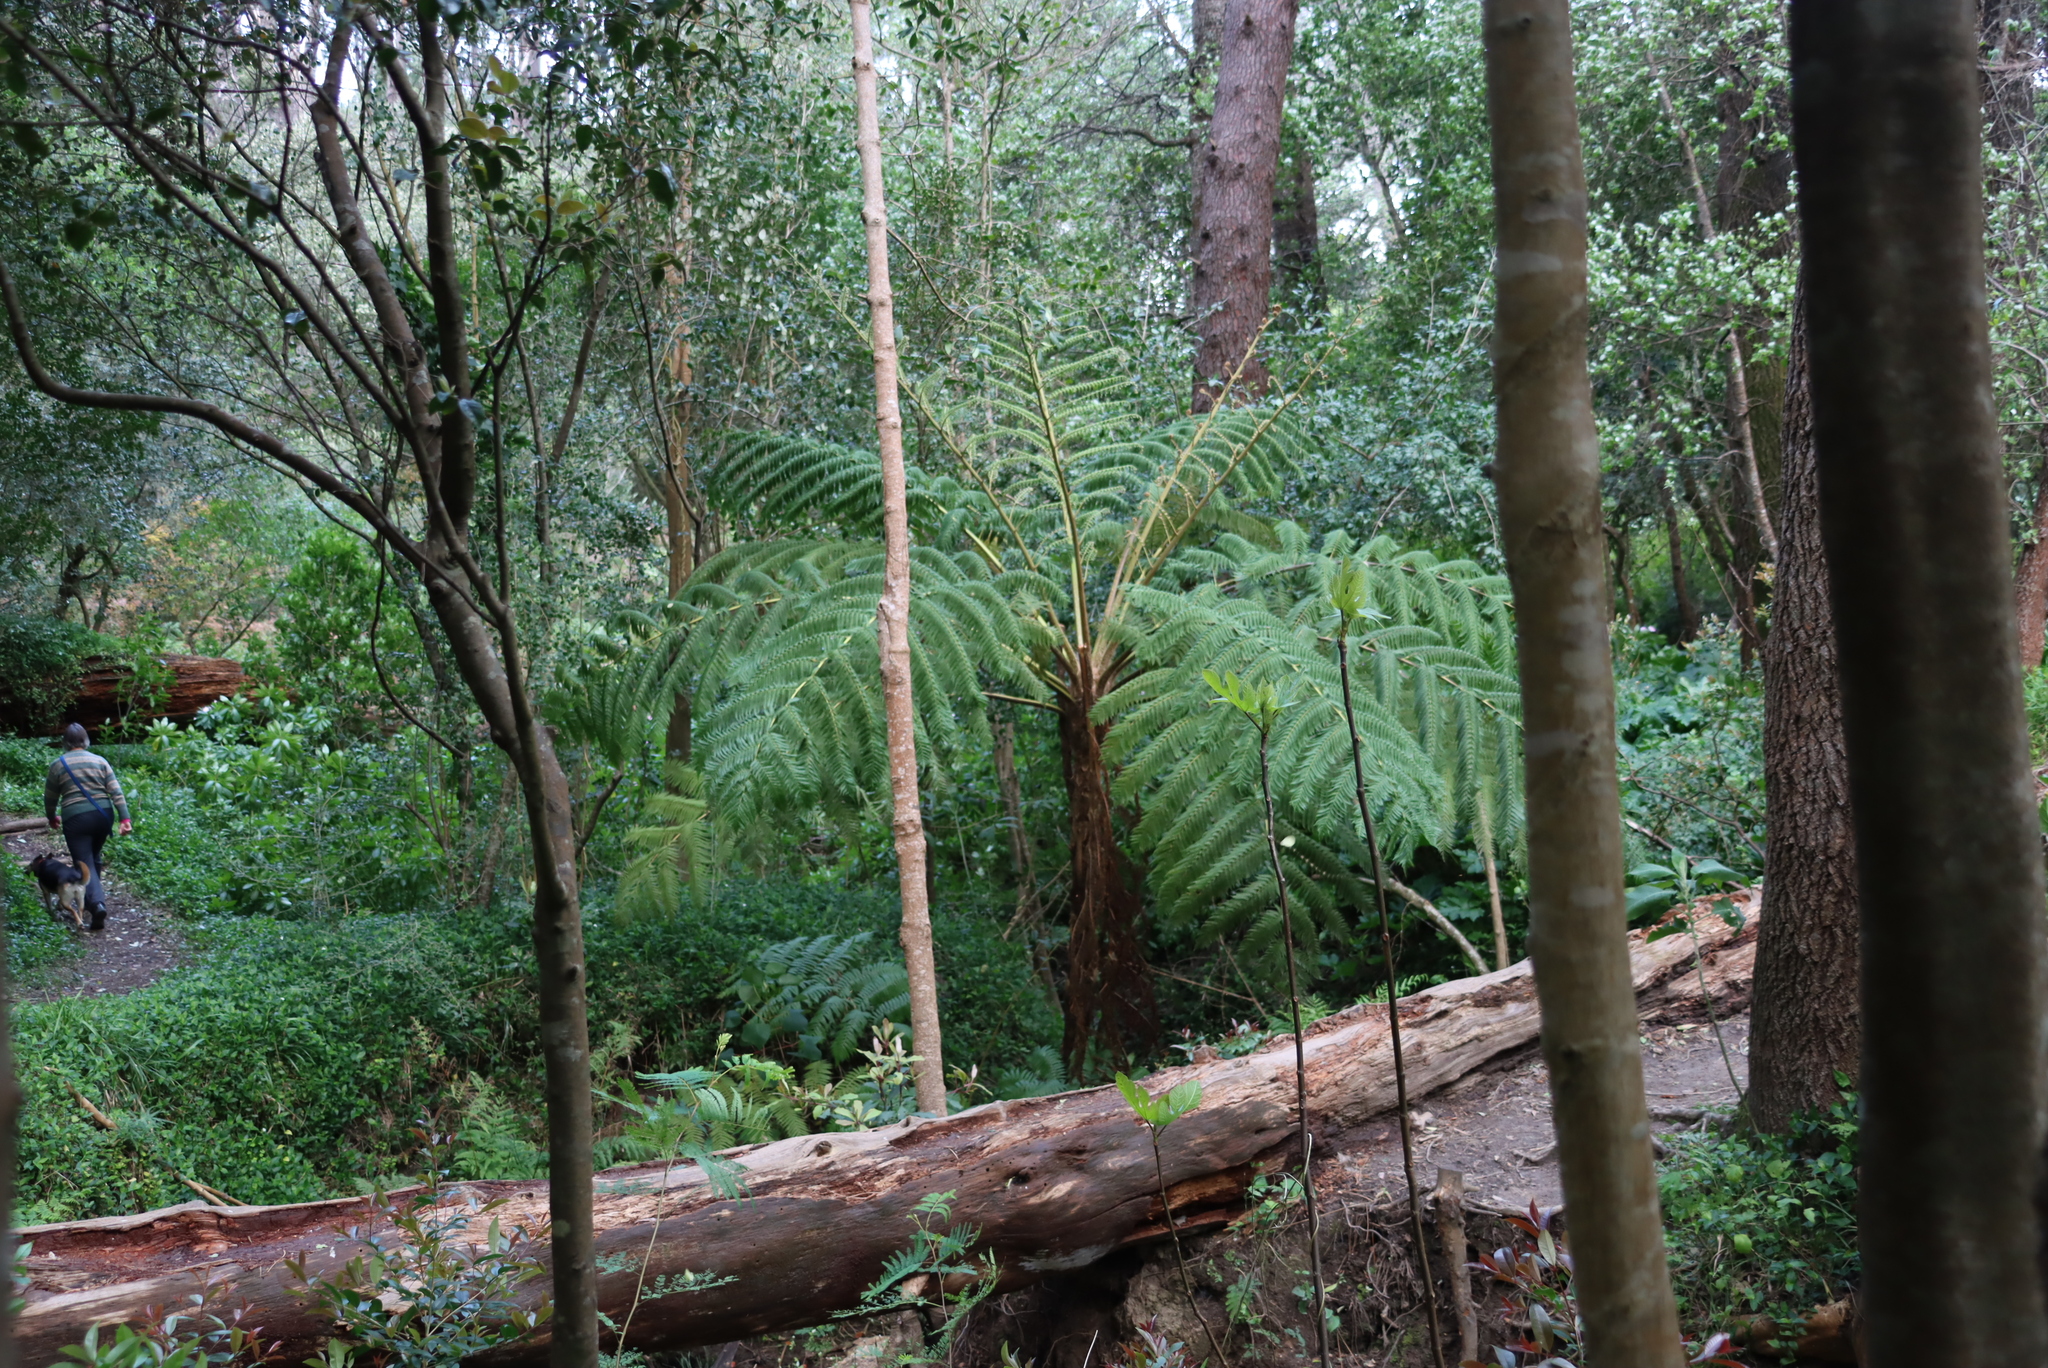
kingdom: Plantae
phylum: Tracheophyta
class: Polypodiopsida
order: Cyatheales
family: Cyatheaceae
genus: Sphaeropteris
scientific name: Sphaeropteris cooperi
